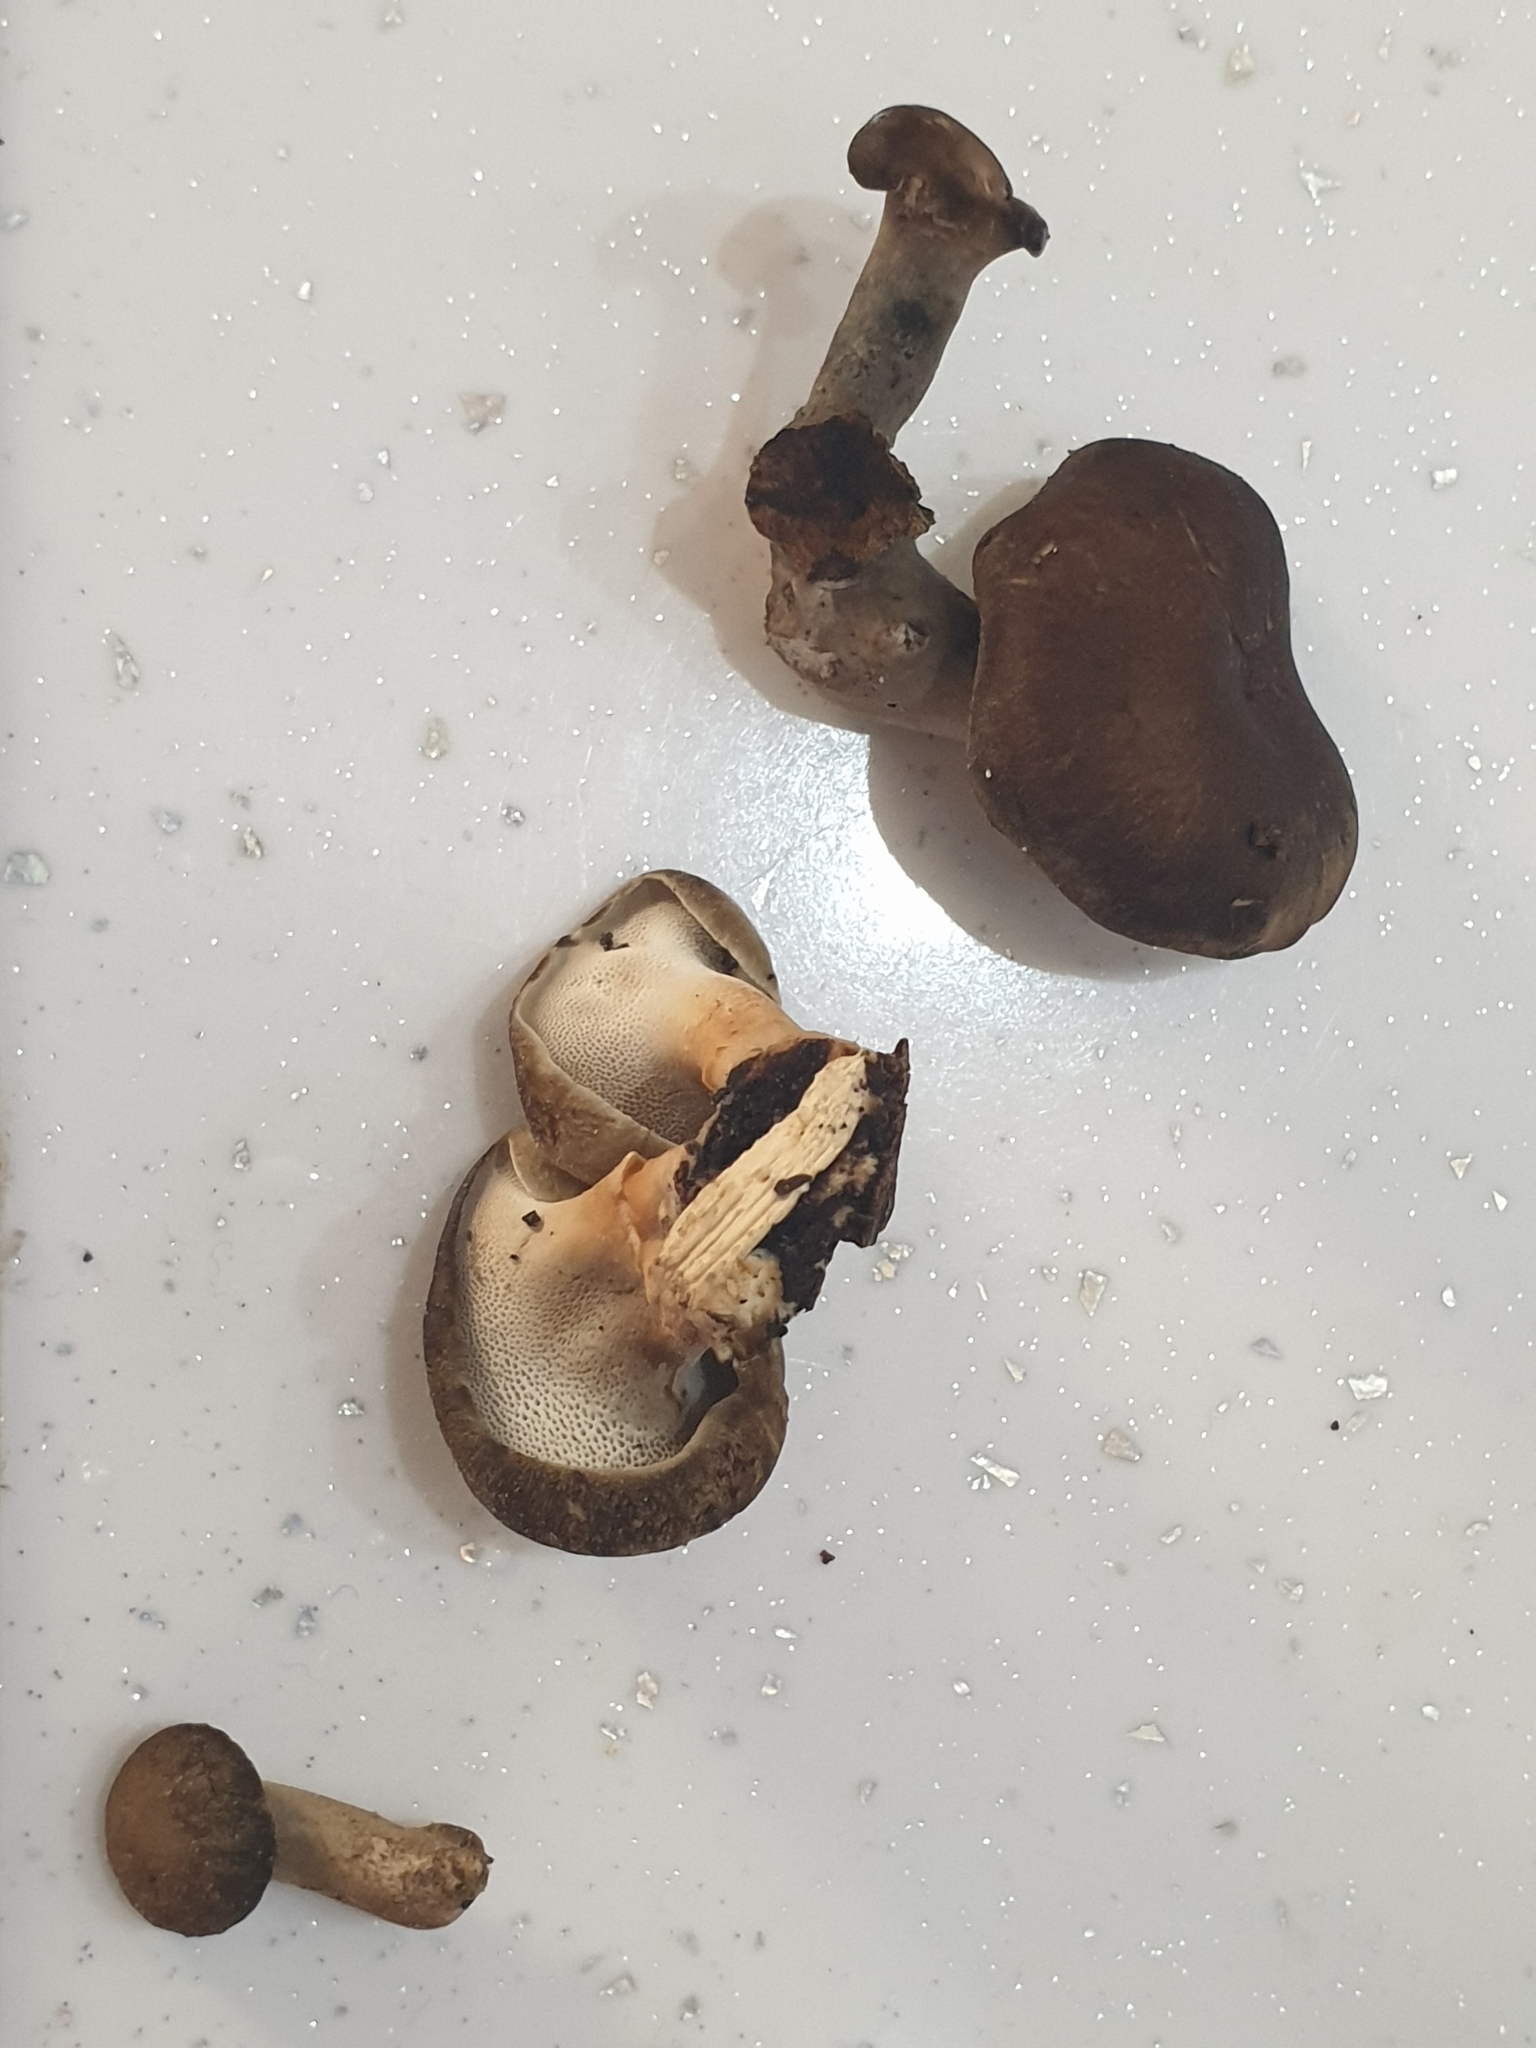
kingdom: Fungi
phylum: Basidiomycota
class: Agaricomycetes
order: Polyporales
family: Polyporaceae
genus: Lentinus
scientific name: Lentinus brumalis
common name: Winter polypore
